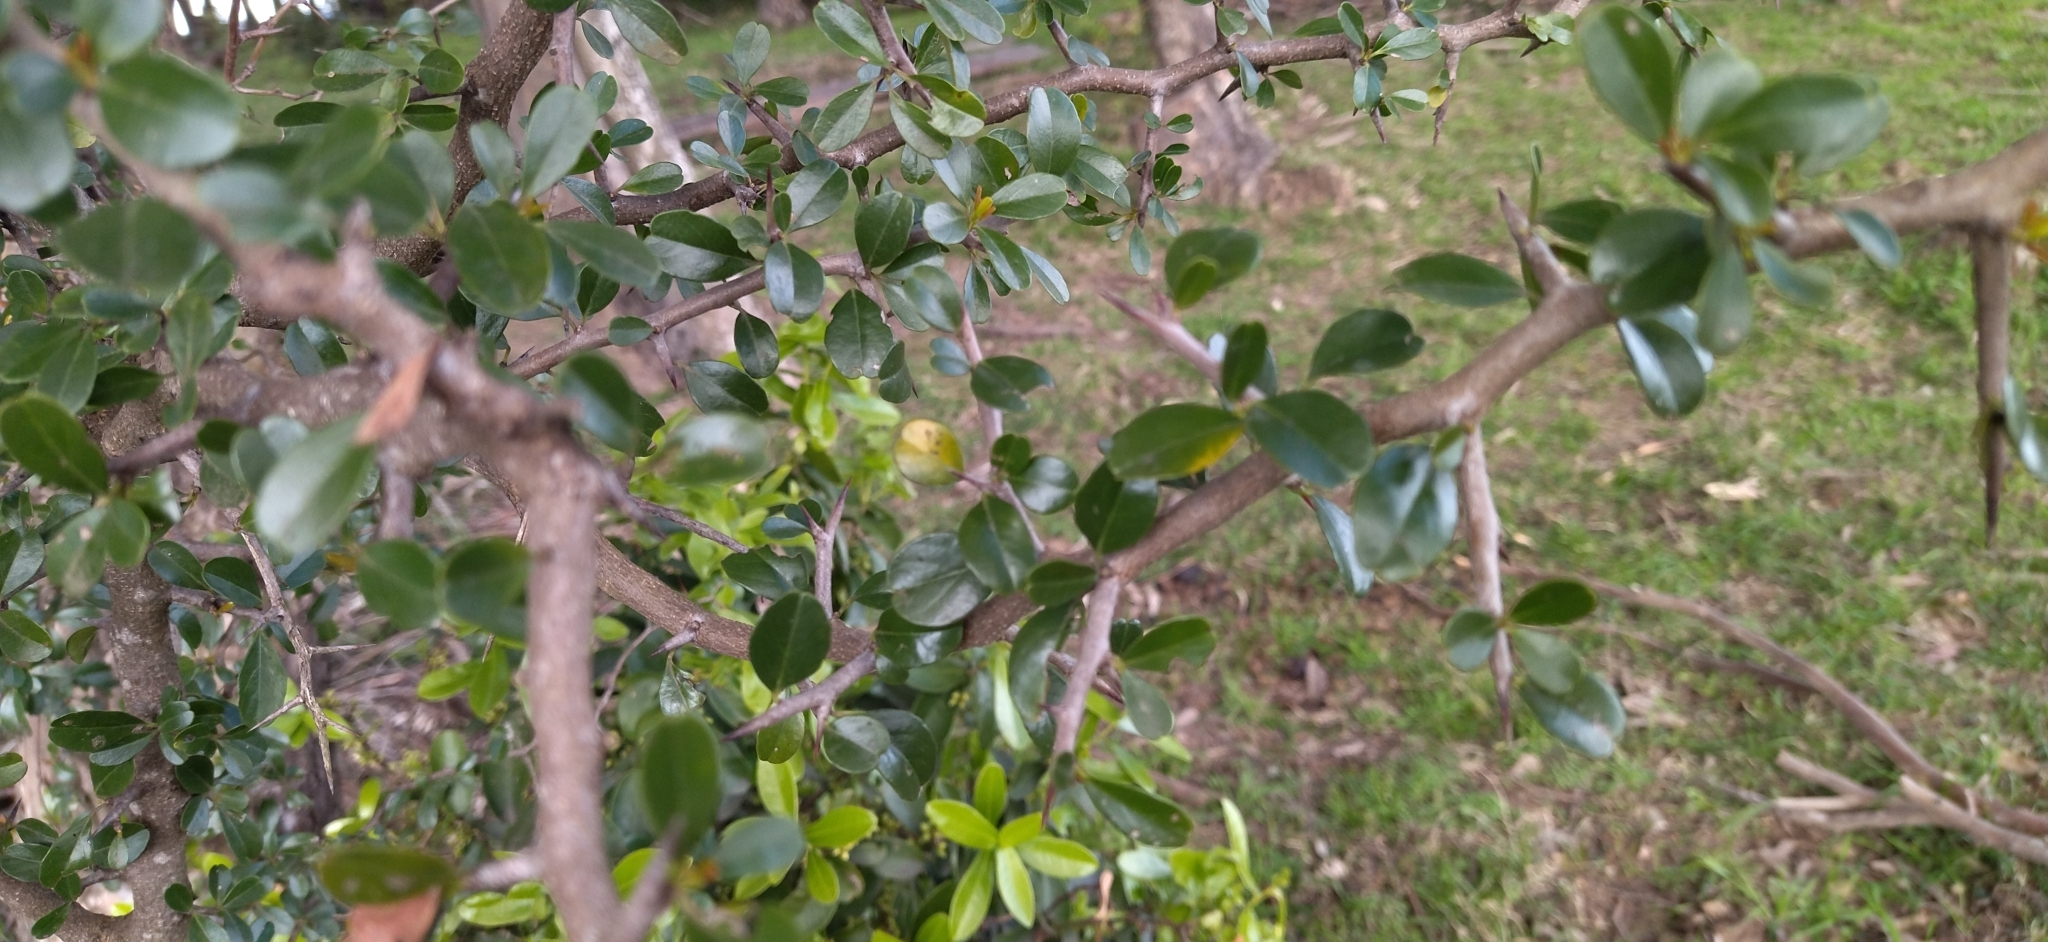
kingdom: Plantae
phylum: Tracheophyta
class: Magnoliopsida
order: Rosales
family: Rhamnaceae
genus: Condalia
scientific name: Condalia buxifolia
